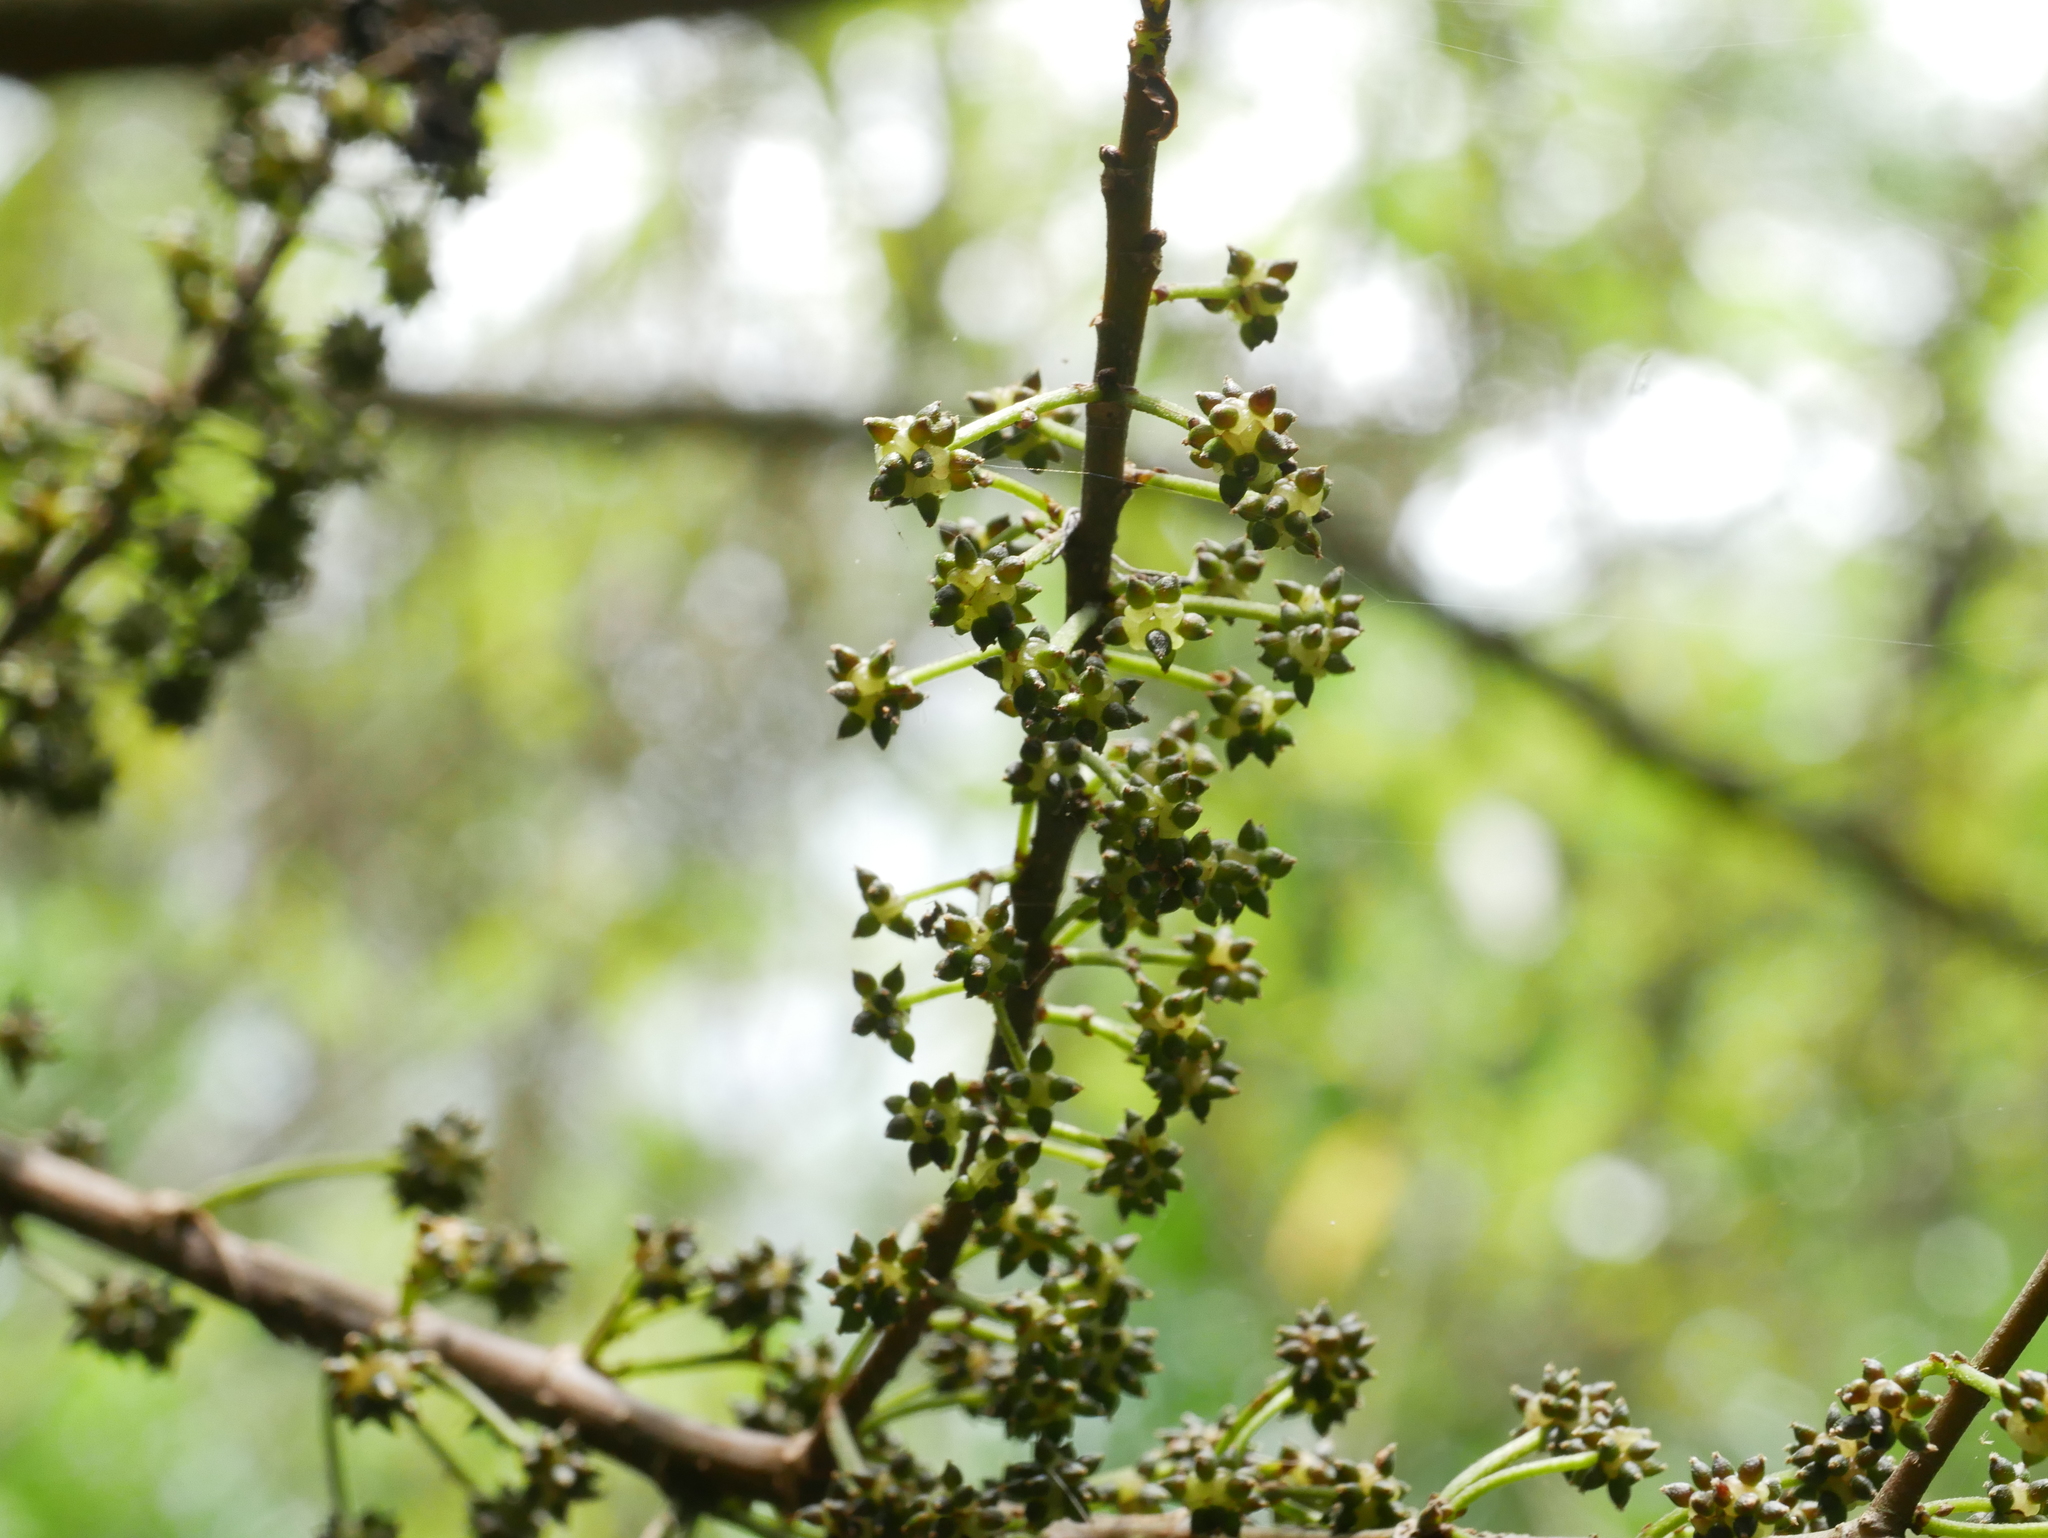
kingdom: Plantae
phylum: Tracheophyta
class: Magnoliopsida
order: Rosales
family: Urticaceae
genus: Oreocnide
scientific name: Oreocnide pedunculata
